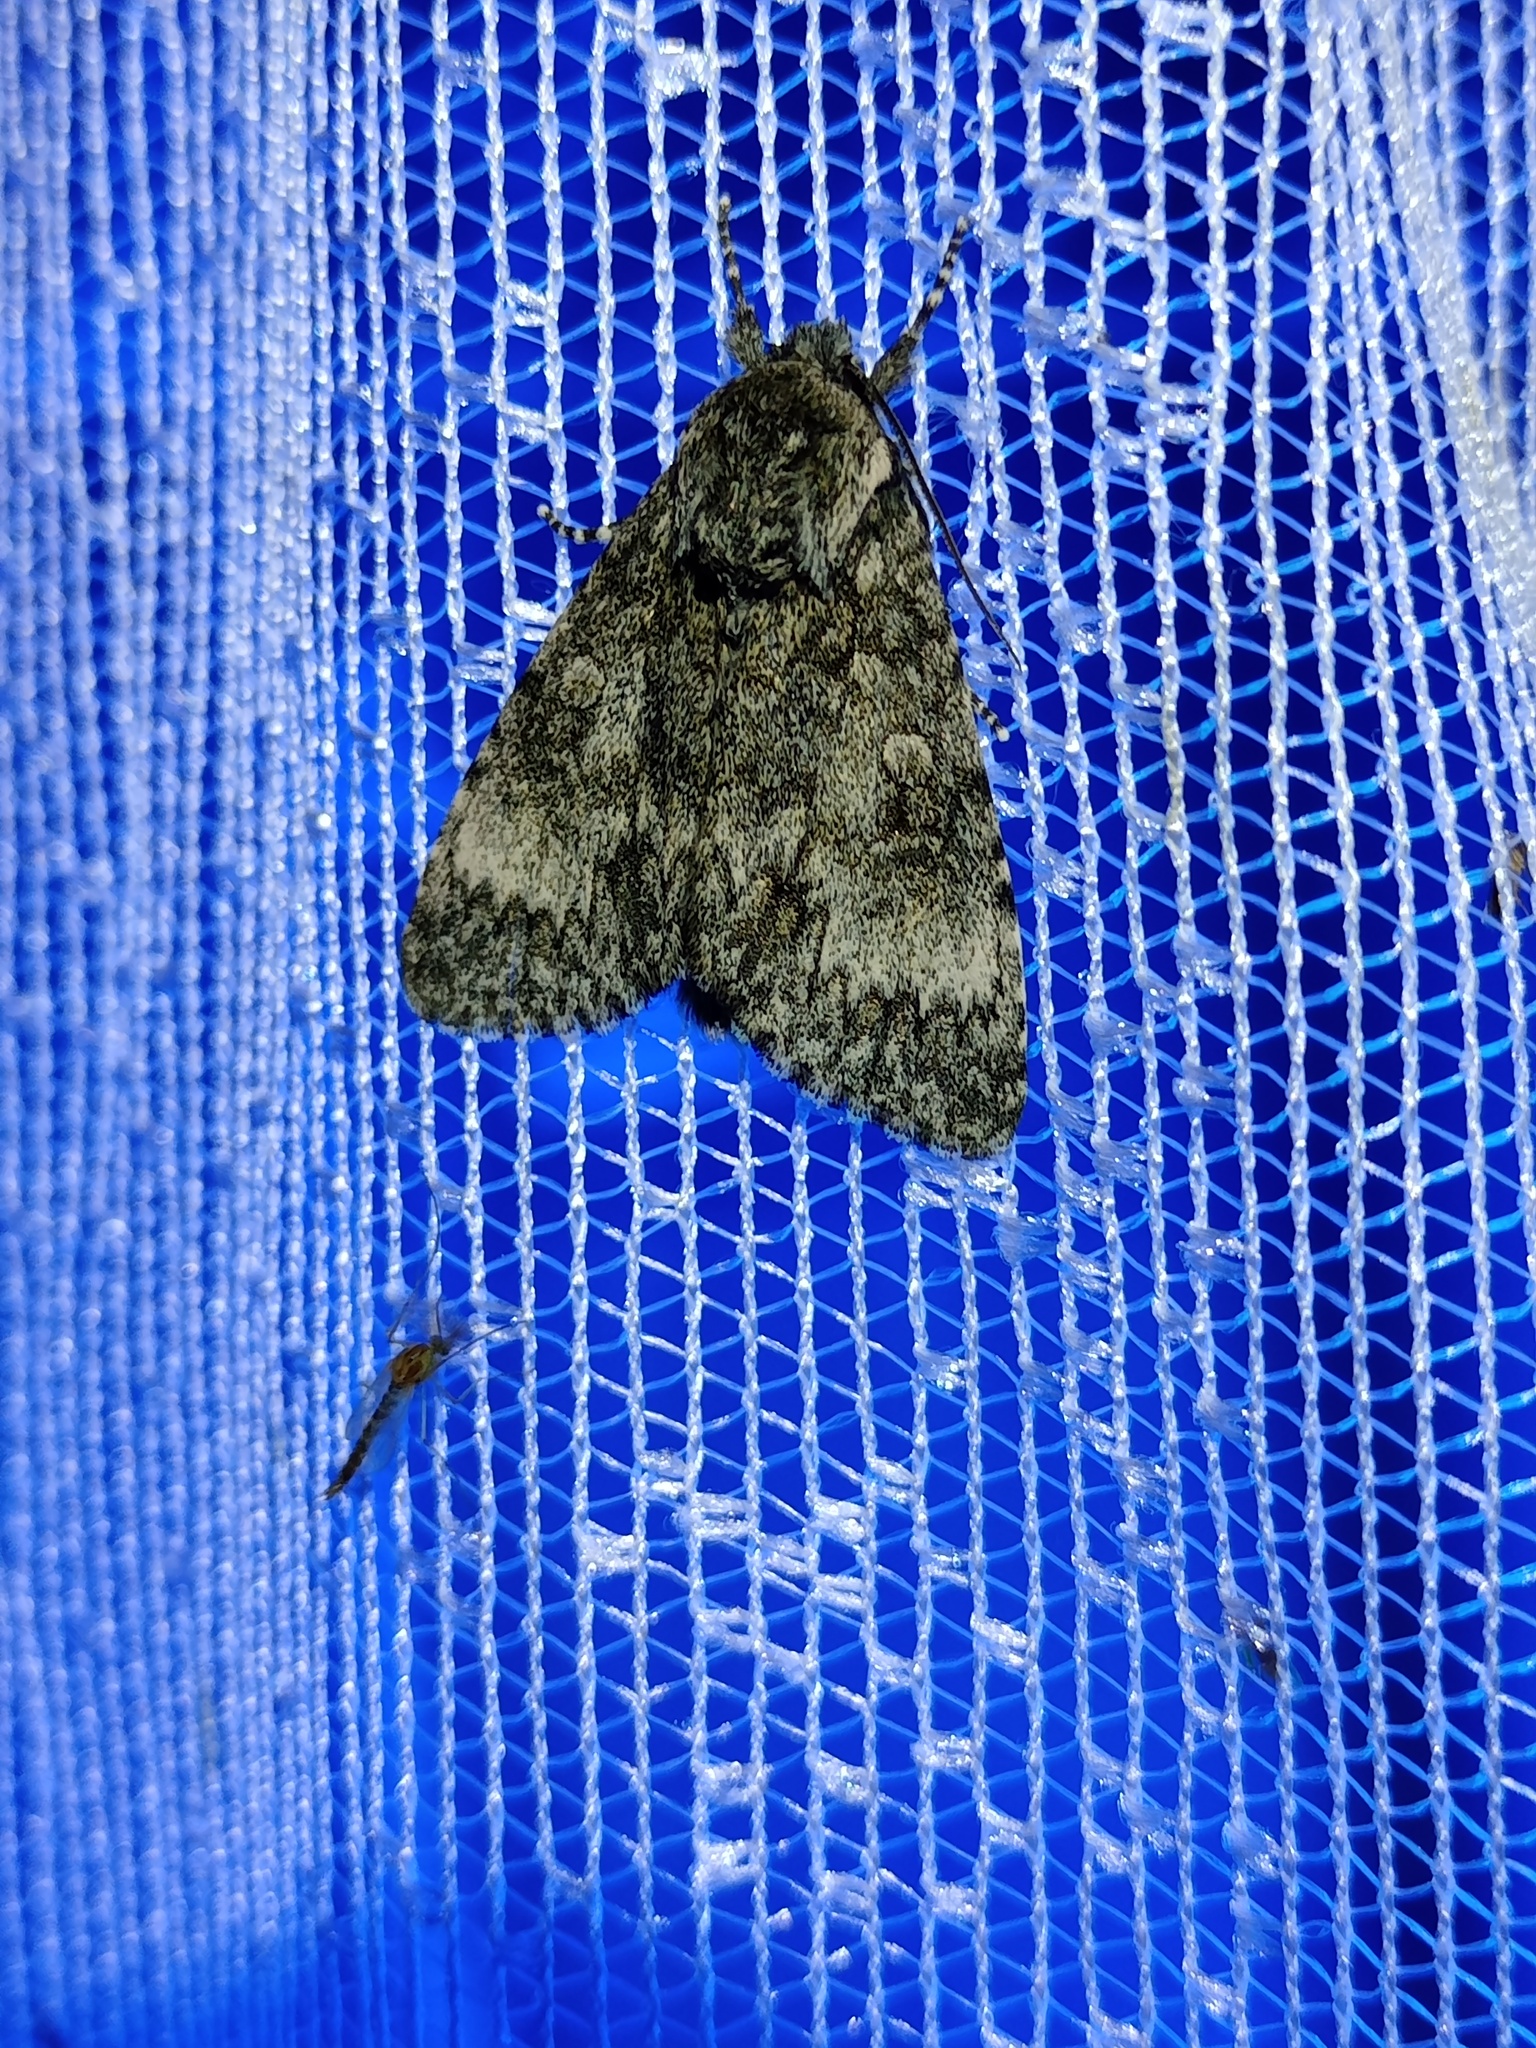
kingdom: Animalia
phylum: Arthropoda
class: Insecta
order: Lepidoptera
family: Noctuidae
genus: Acronicta
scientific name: Acronicta megacephala
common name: Poplar grey
